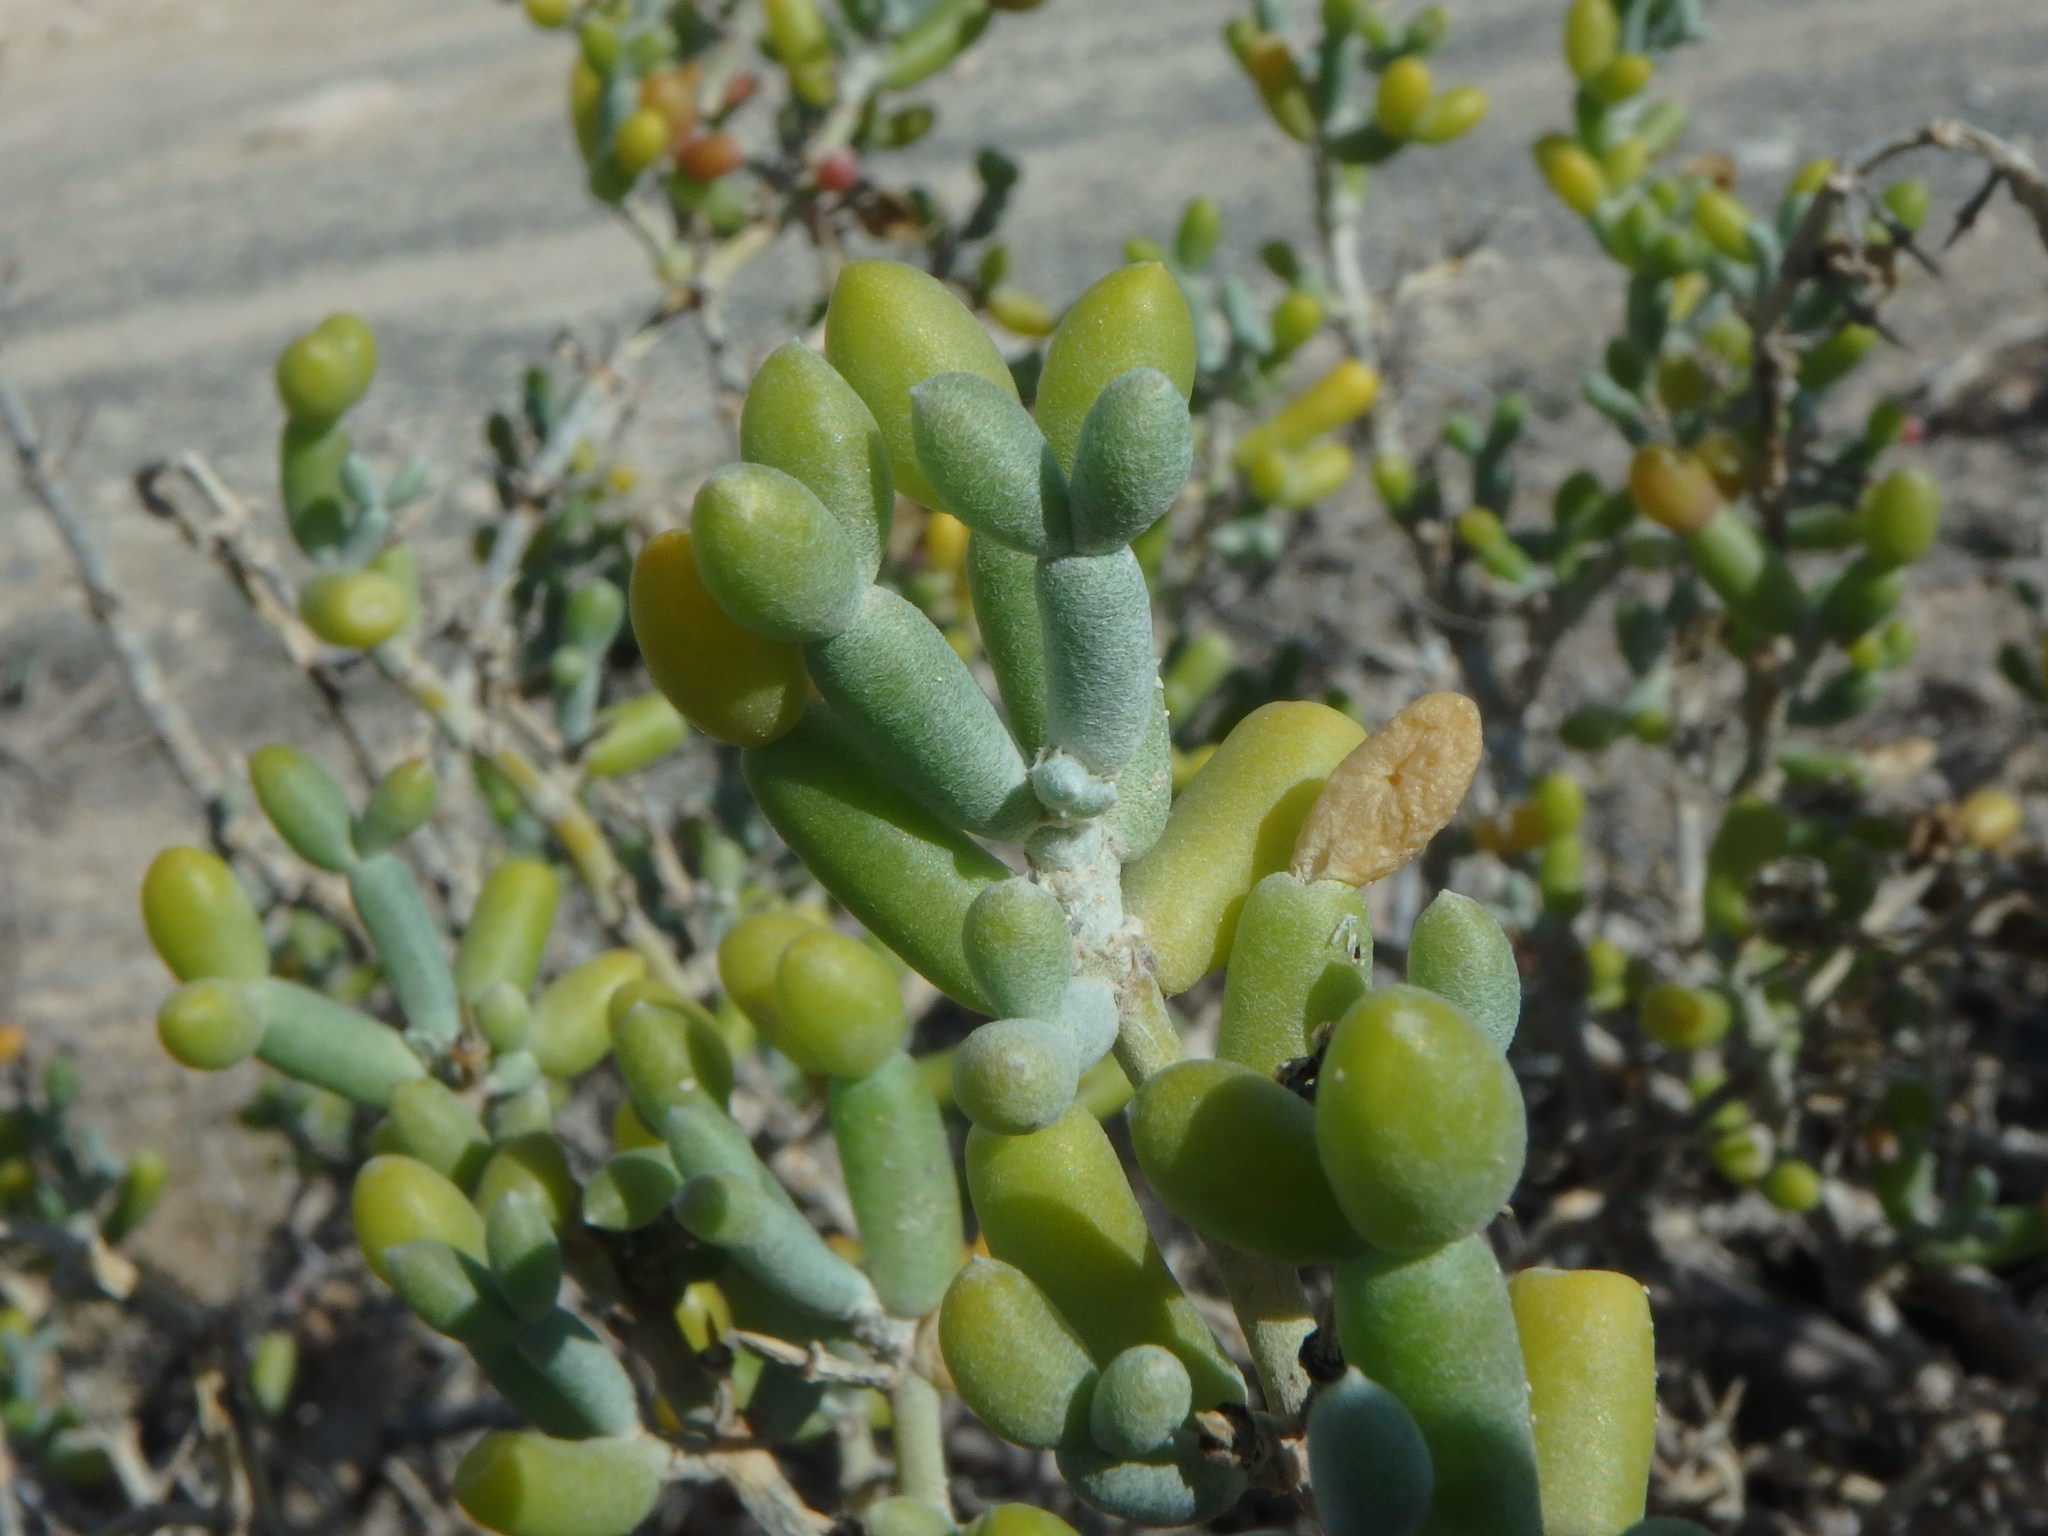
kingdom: Plantae
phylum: Tracheophyta
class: Magnoliopsida
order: Zygophyllales
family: Zygophyllaceae
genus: Tetraena
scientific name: Tetraena alba
